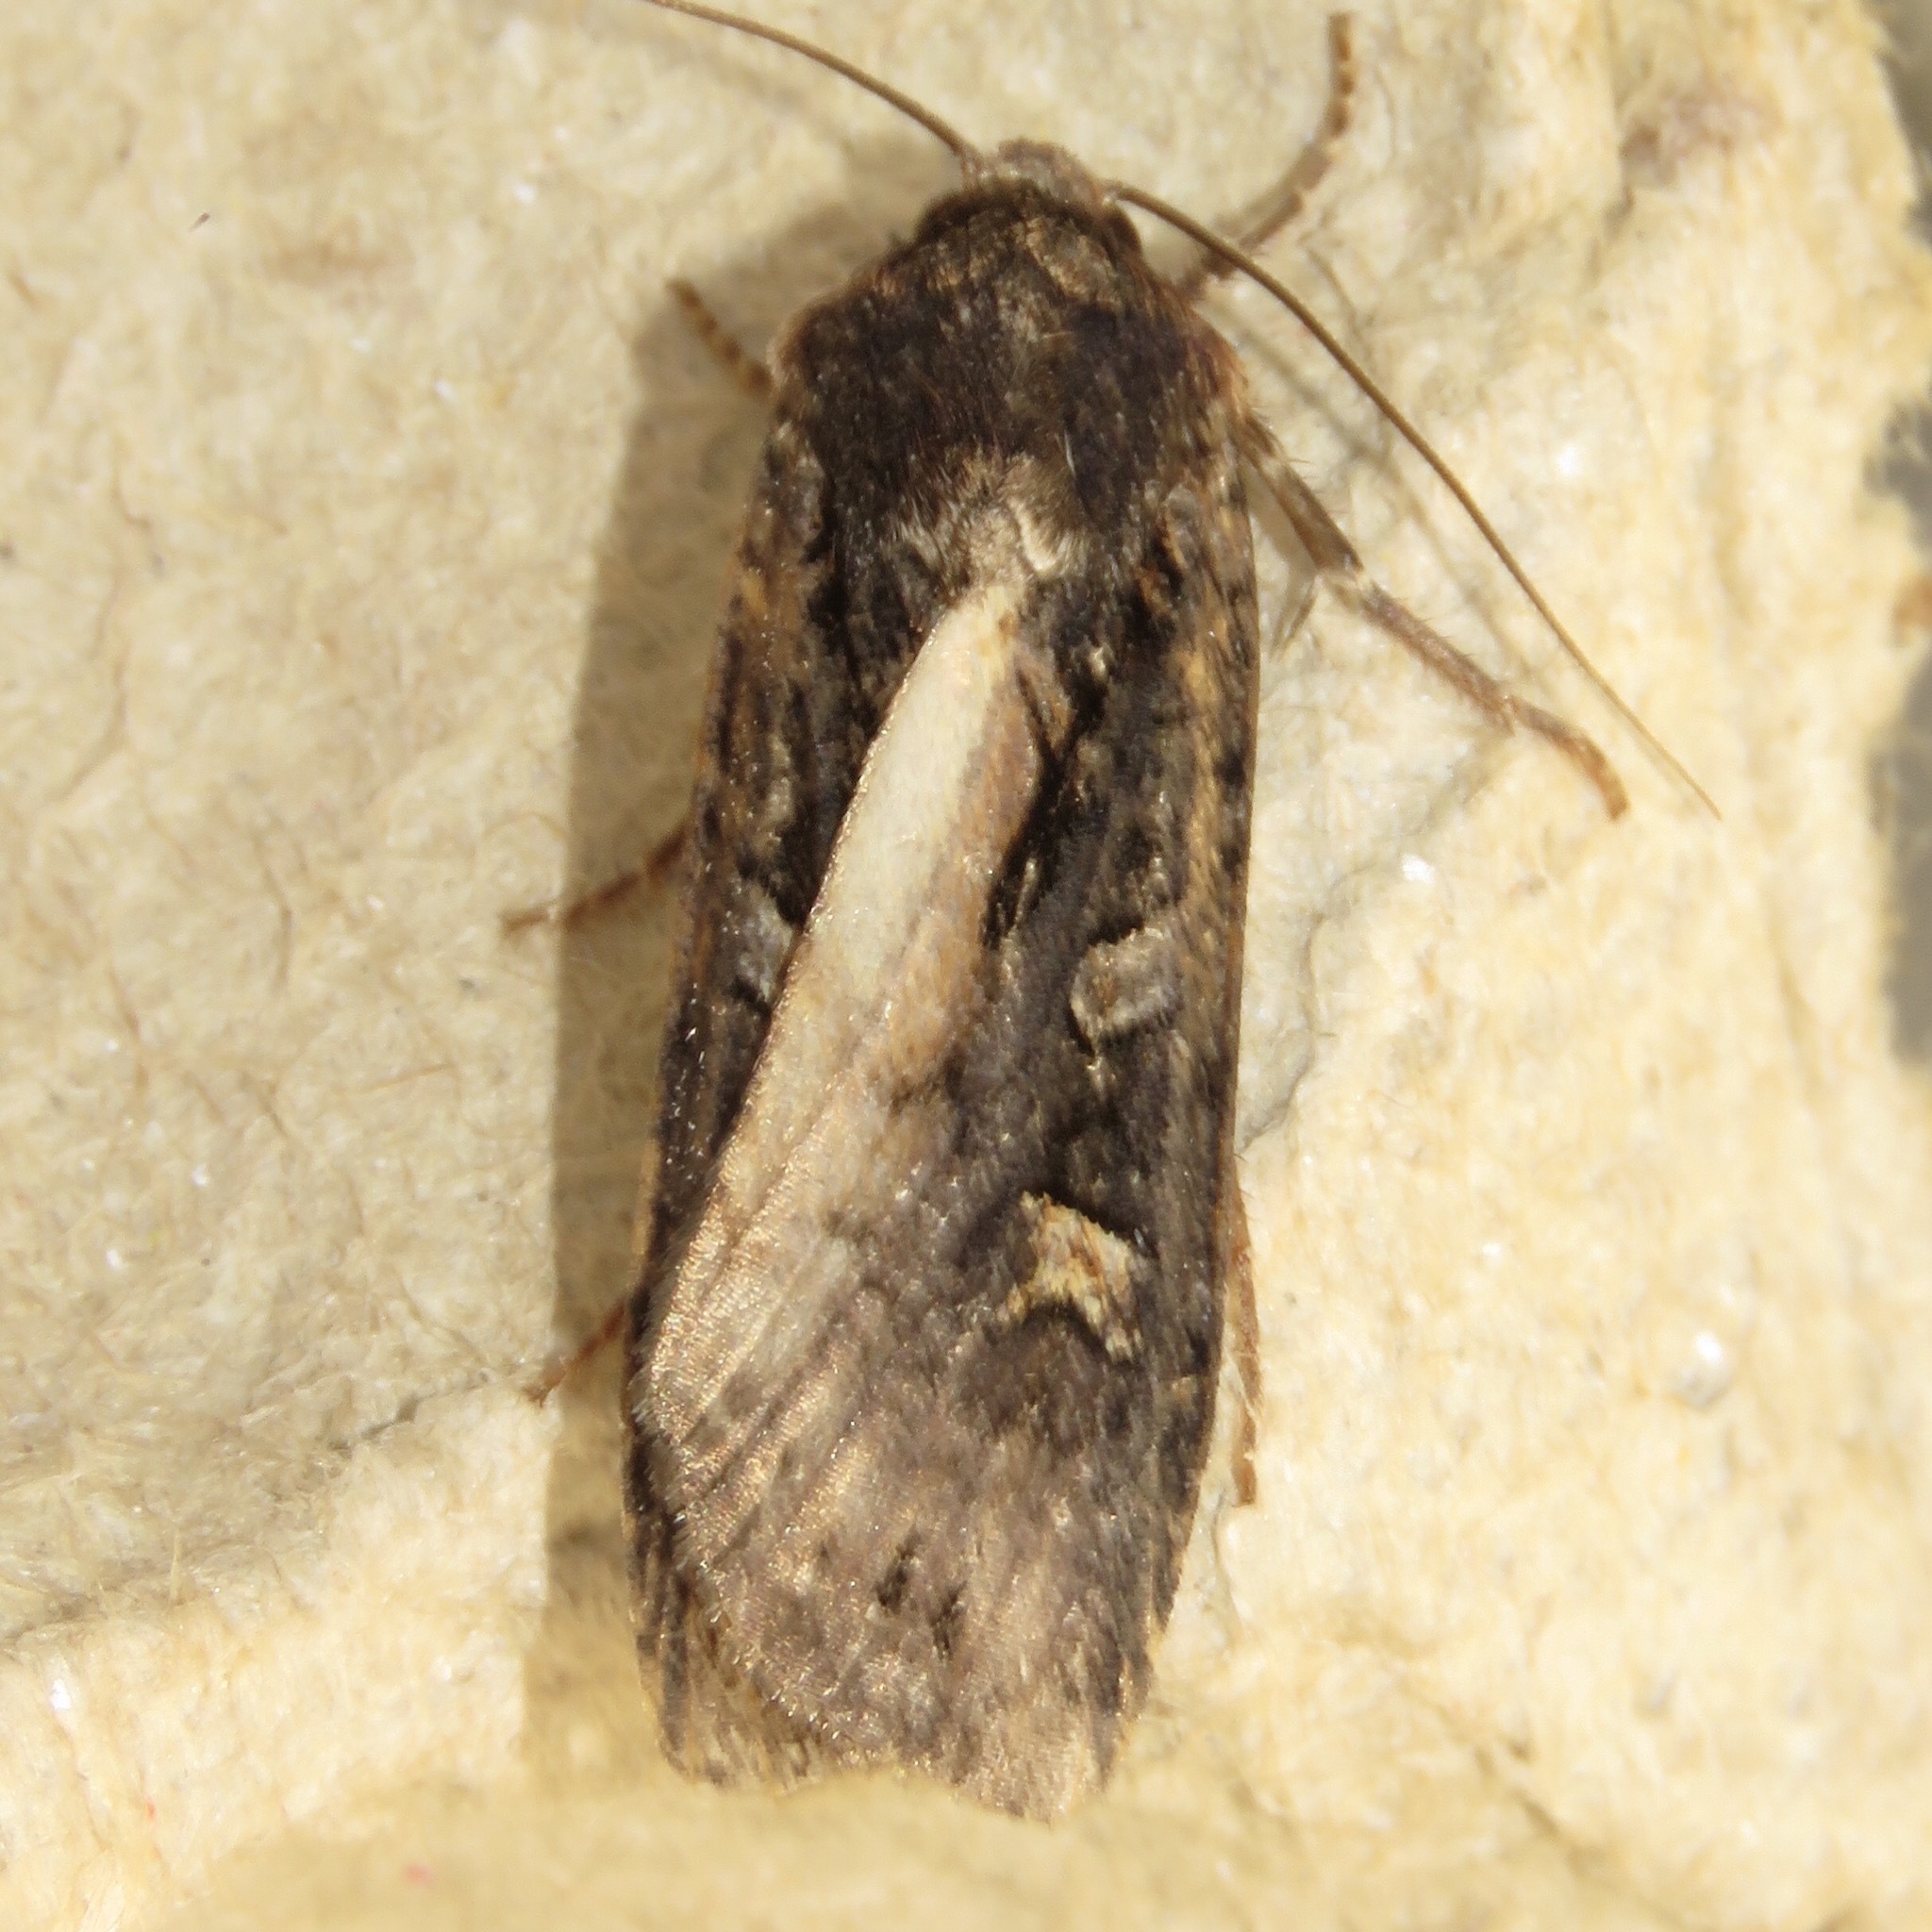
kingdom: Animalia
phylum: Arthropoda
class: Insecta
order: Lepidoptera
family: Noctuidae
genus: Actebia
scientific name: Actebia fennica
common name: Eversmann's rustic
